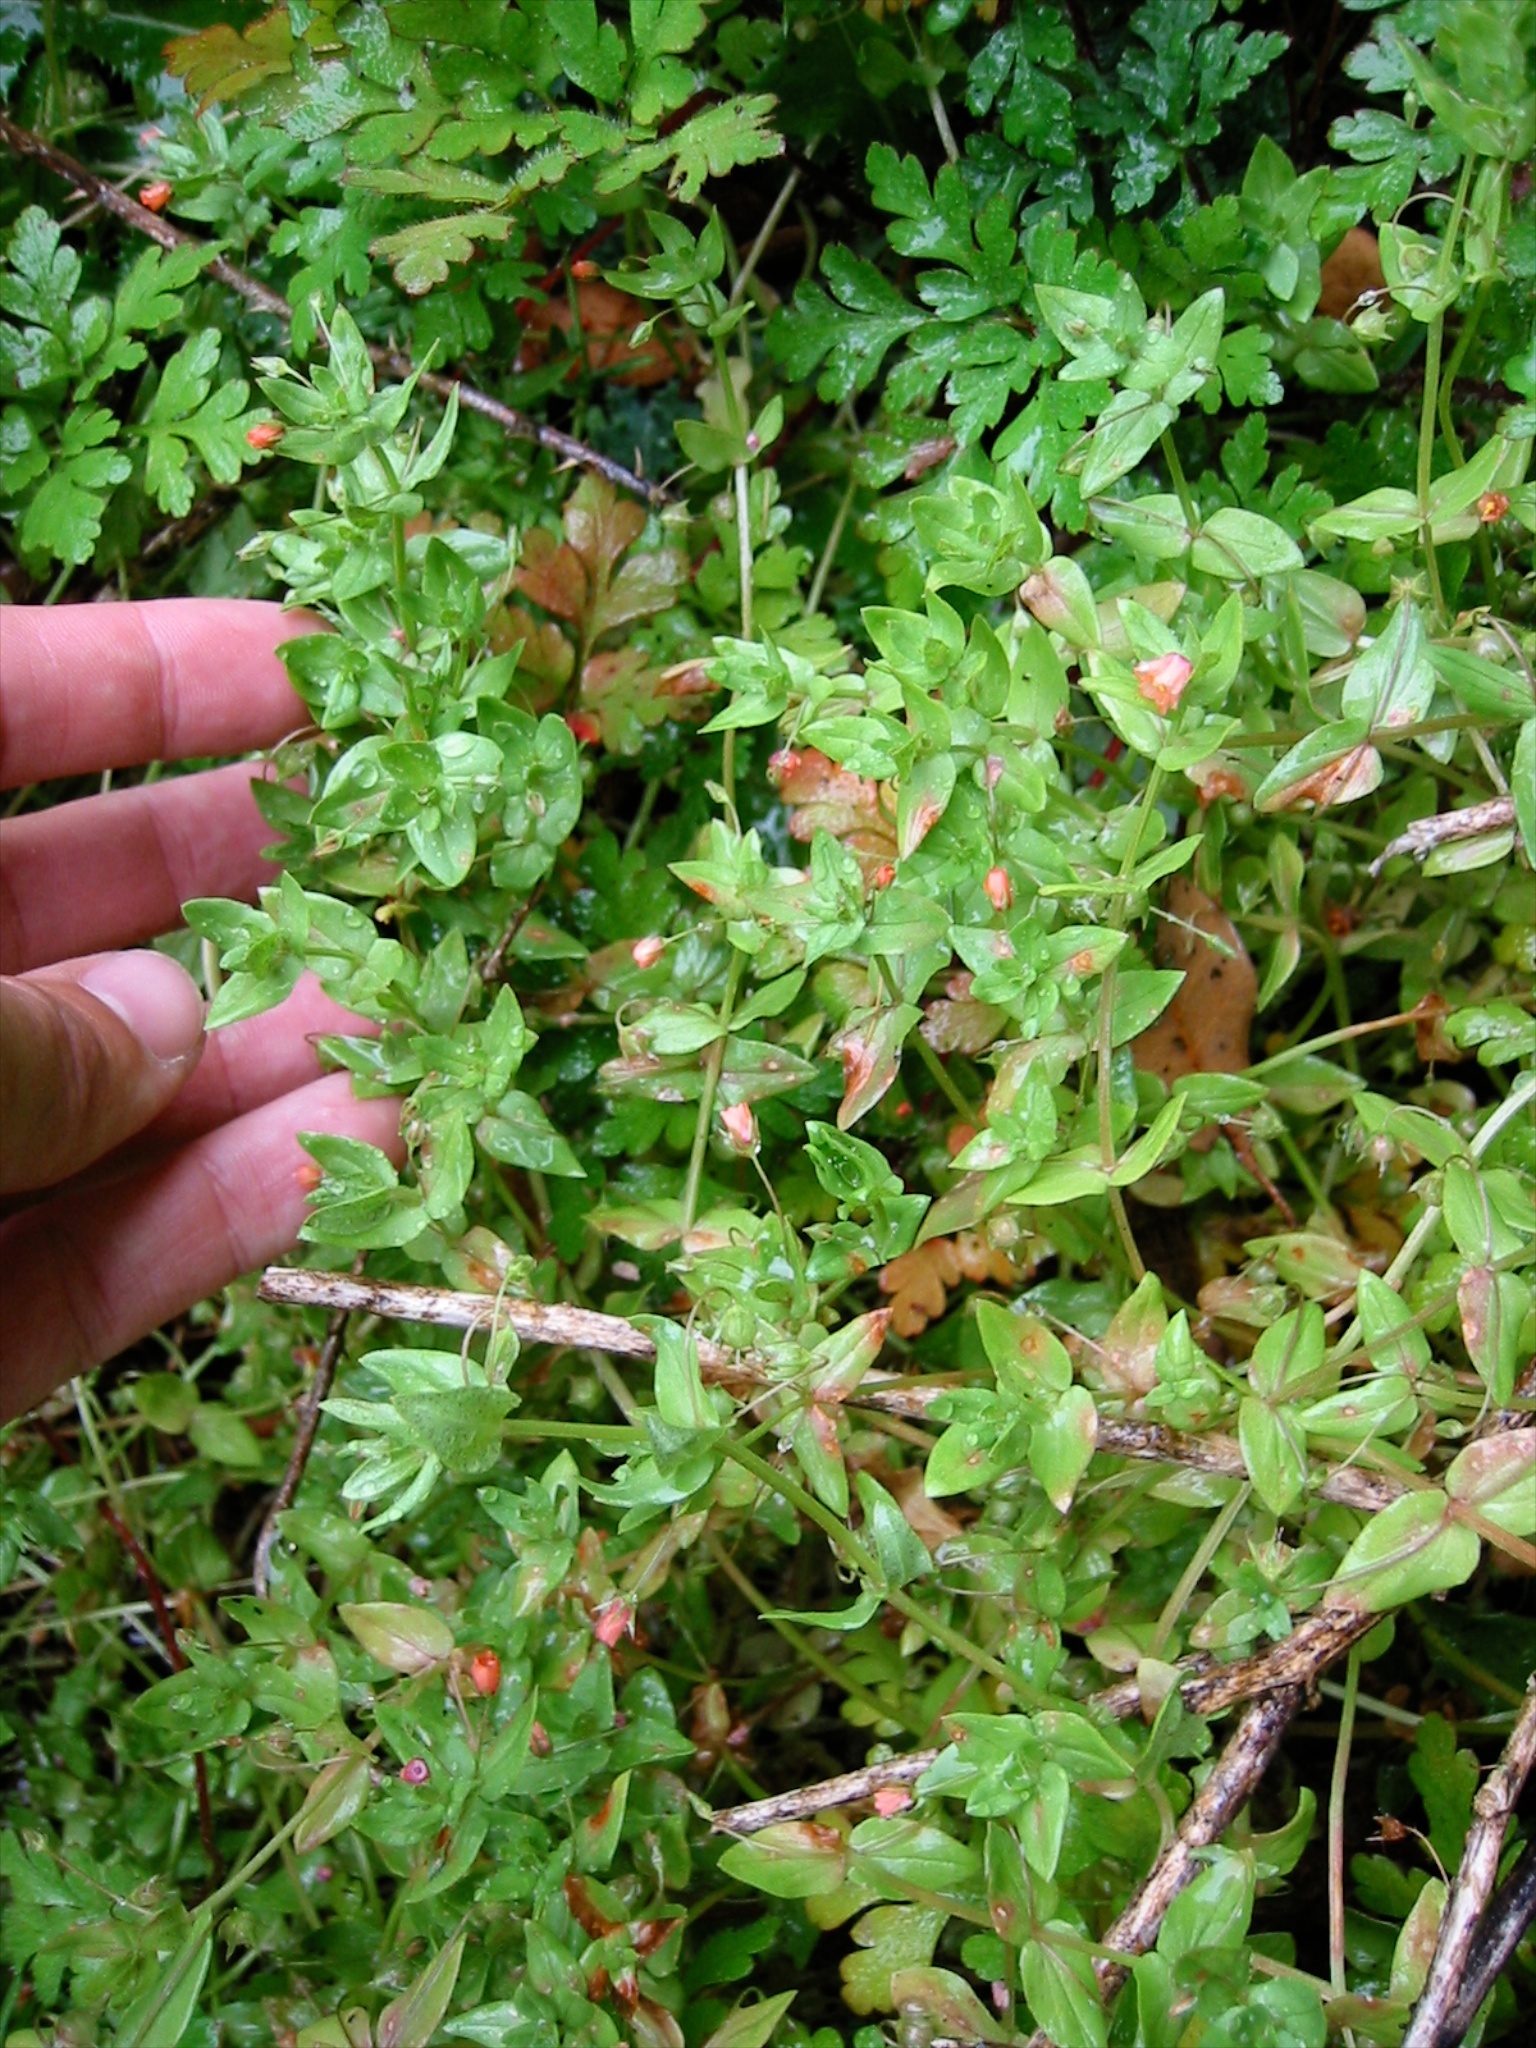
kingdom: Plantae
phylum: Tracheophyta
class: Magnoliopsida
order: Ericales
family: Primulaceae
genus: Lysimachia
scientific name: Lysimachia arvensis
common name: Scarlet pimpernel
